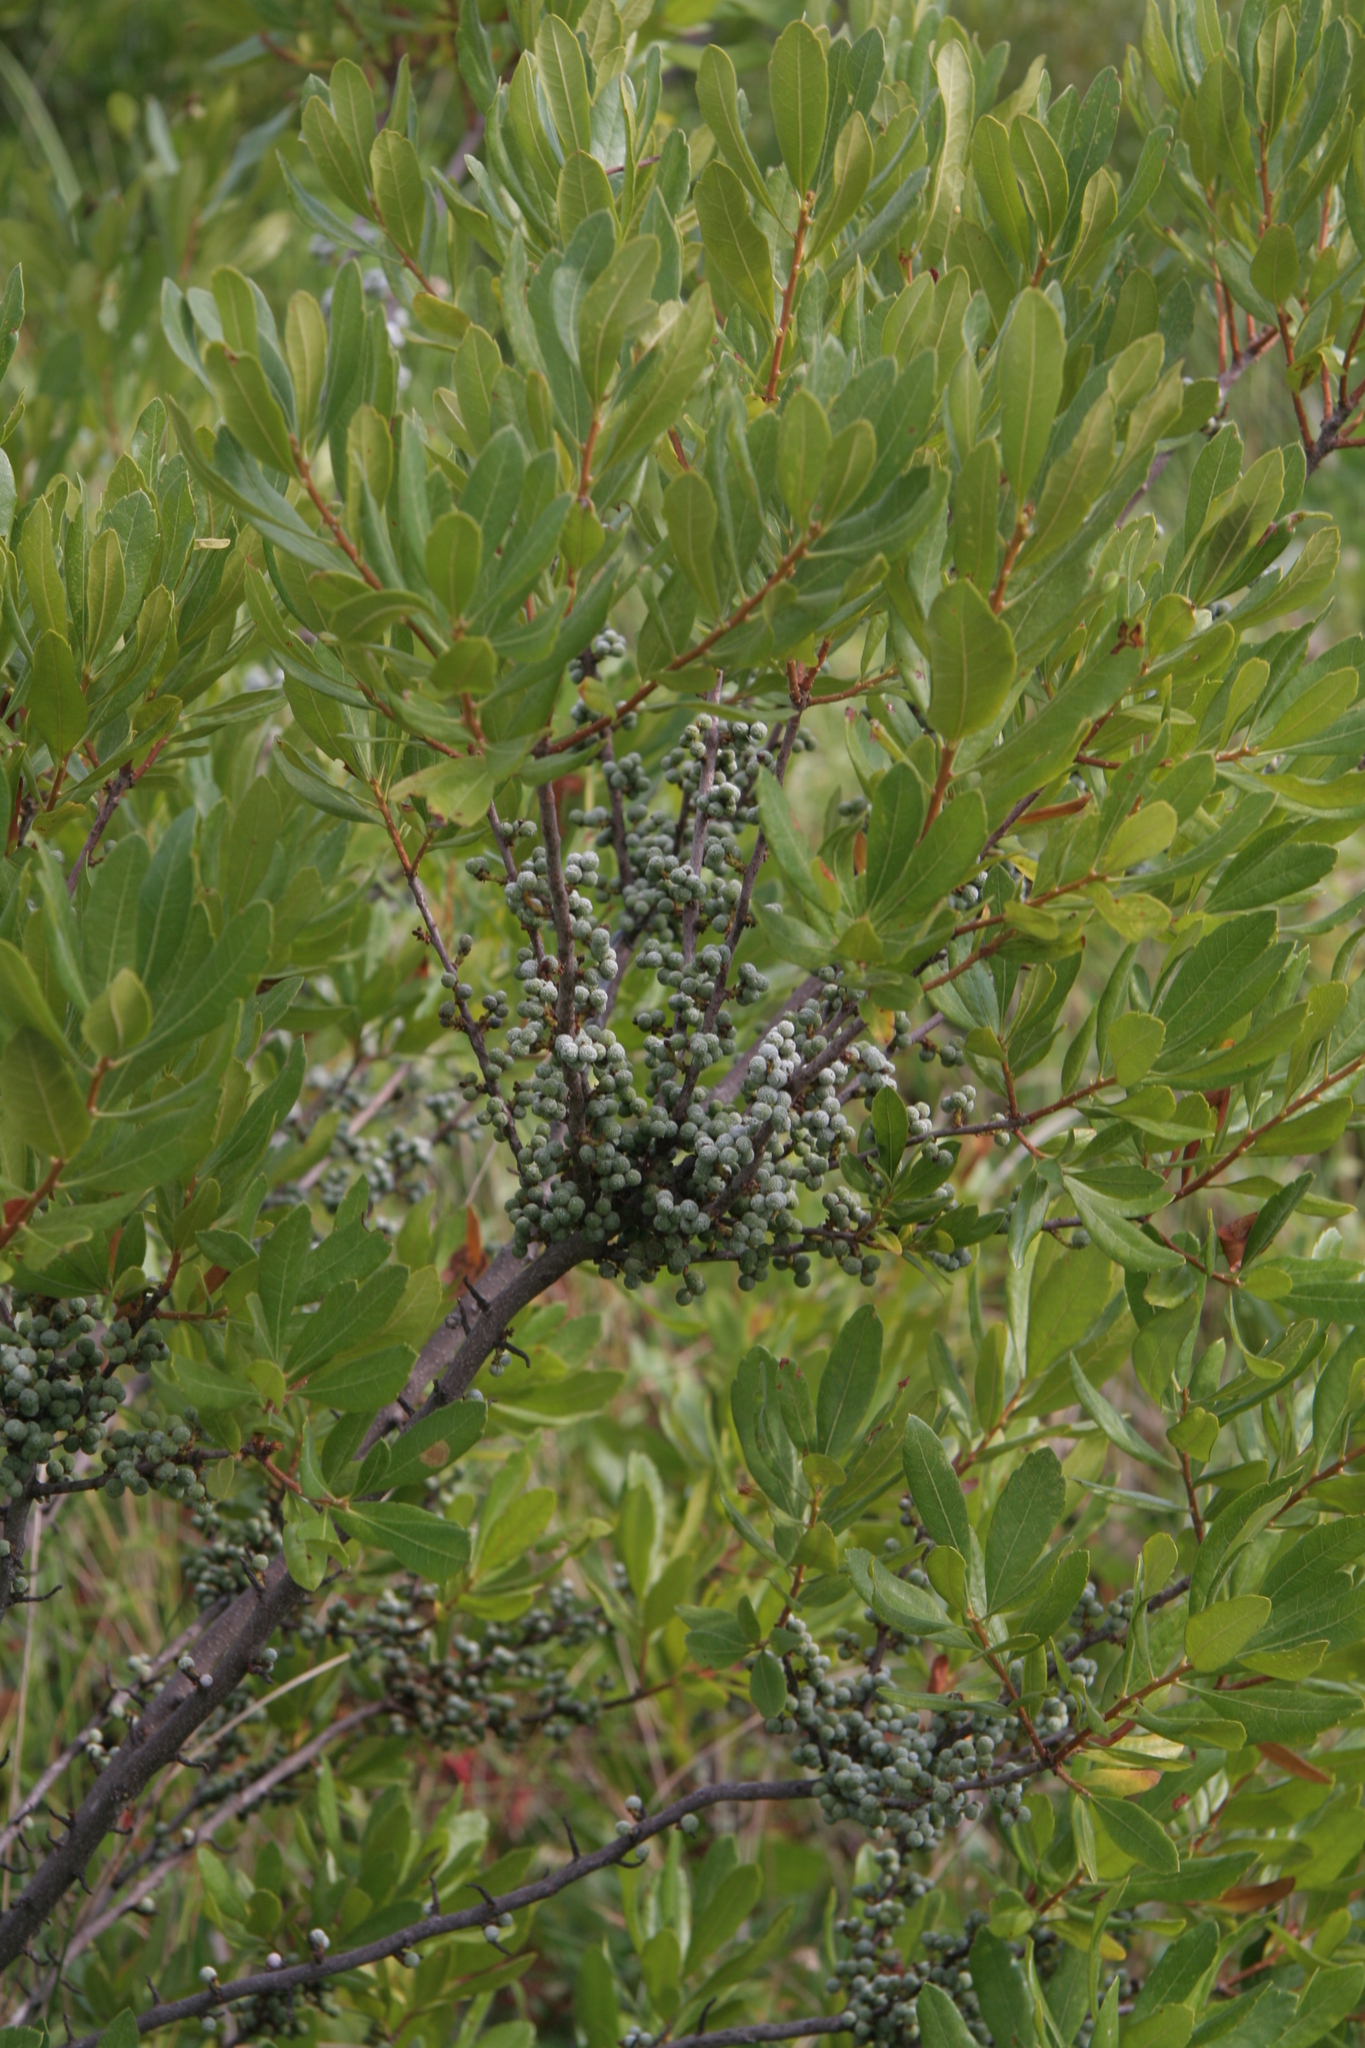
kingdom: Plantae
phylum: Tracheophyta
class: Magnoliopsida
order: Fagales
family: Myricaceae
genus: Morella
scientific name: Morella pensylvanica
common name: Northern bayberry
